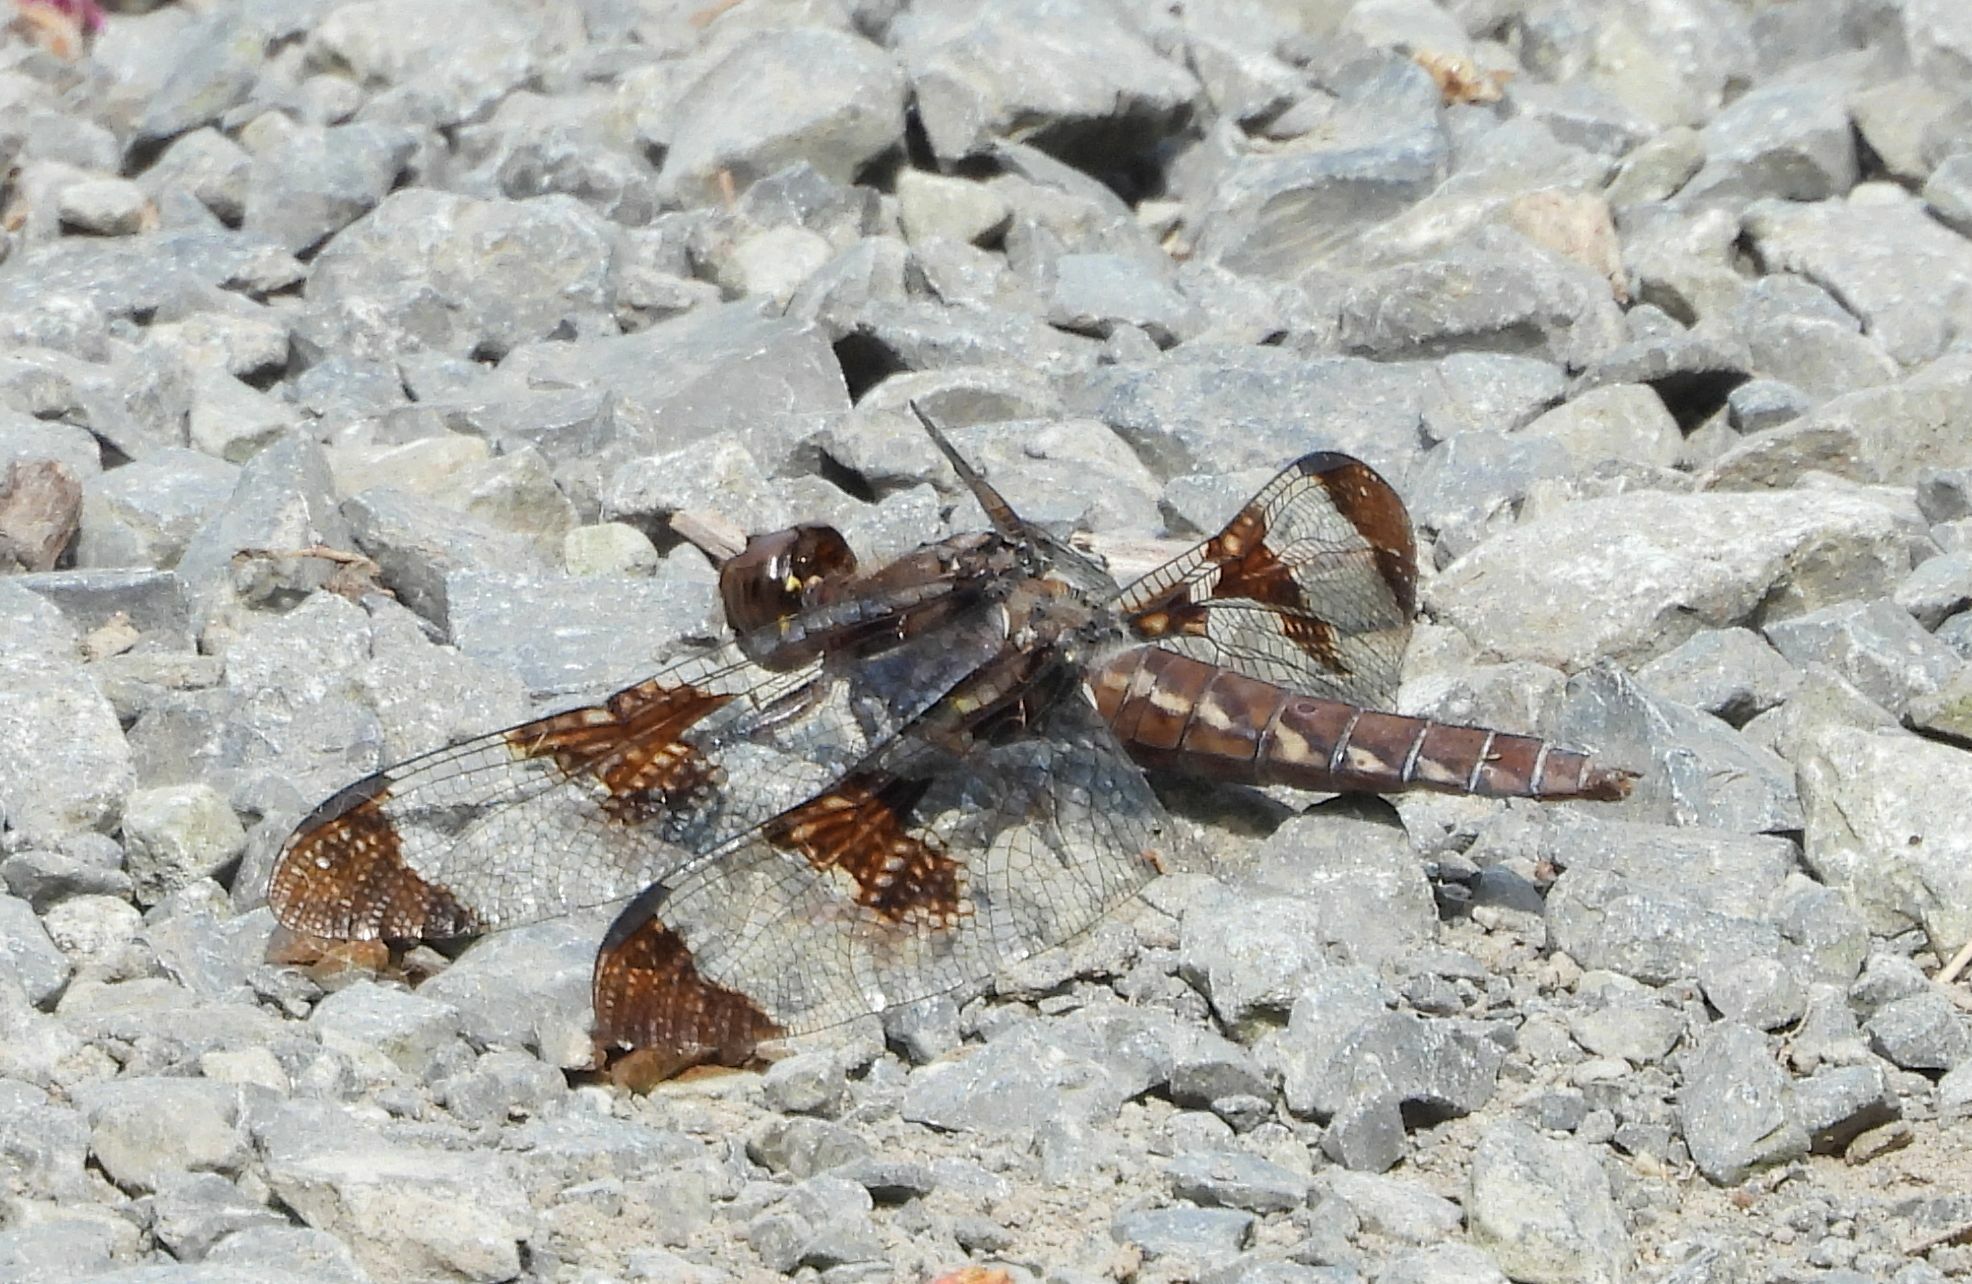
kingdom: Animalia
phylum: Arthropoda
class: Insecta
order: Odonata
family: Libellulidae
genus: Plathemis
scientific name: Plathemis lydia
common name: Common whitetail
